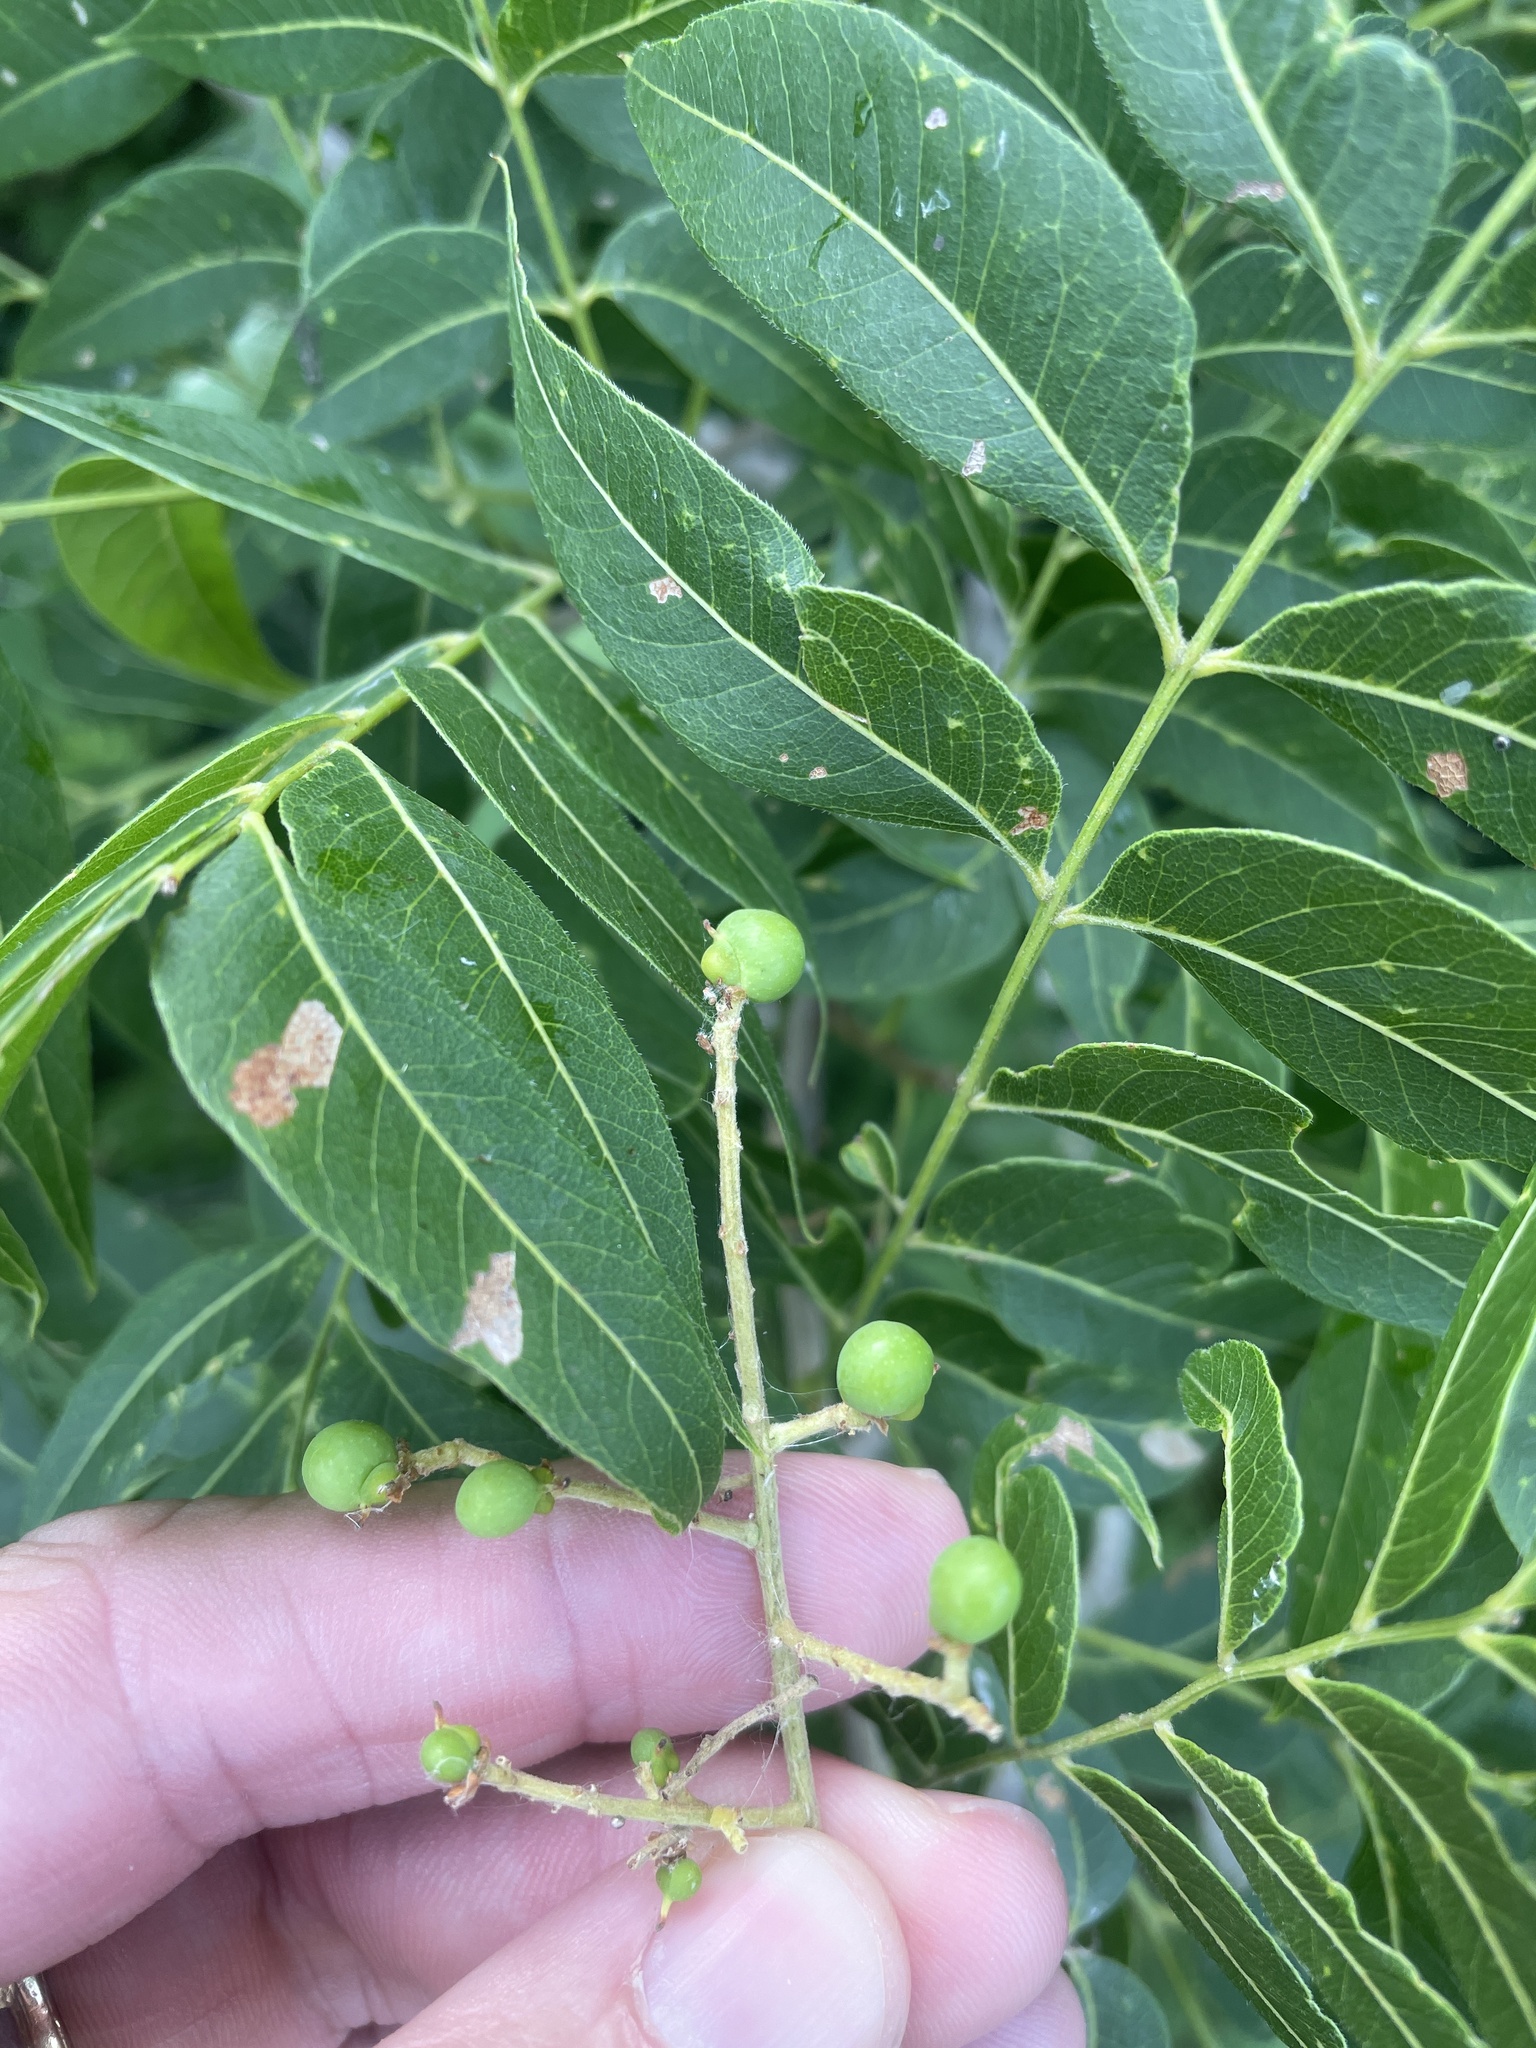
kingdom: Plantae
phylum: Tracheophyta
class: Magnoliopsida
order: Sapindales
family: Sapindaceae
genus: Sapindus
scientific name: Sapindus drummondii
